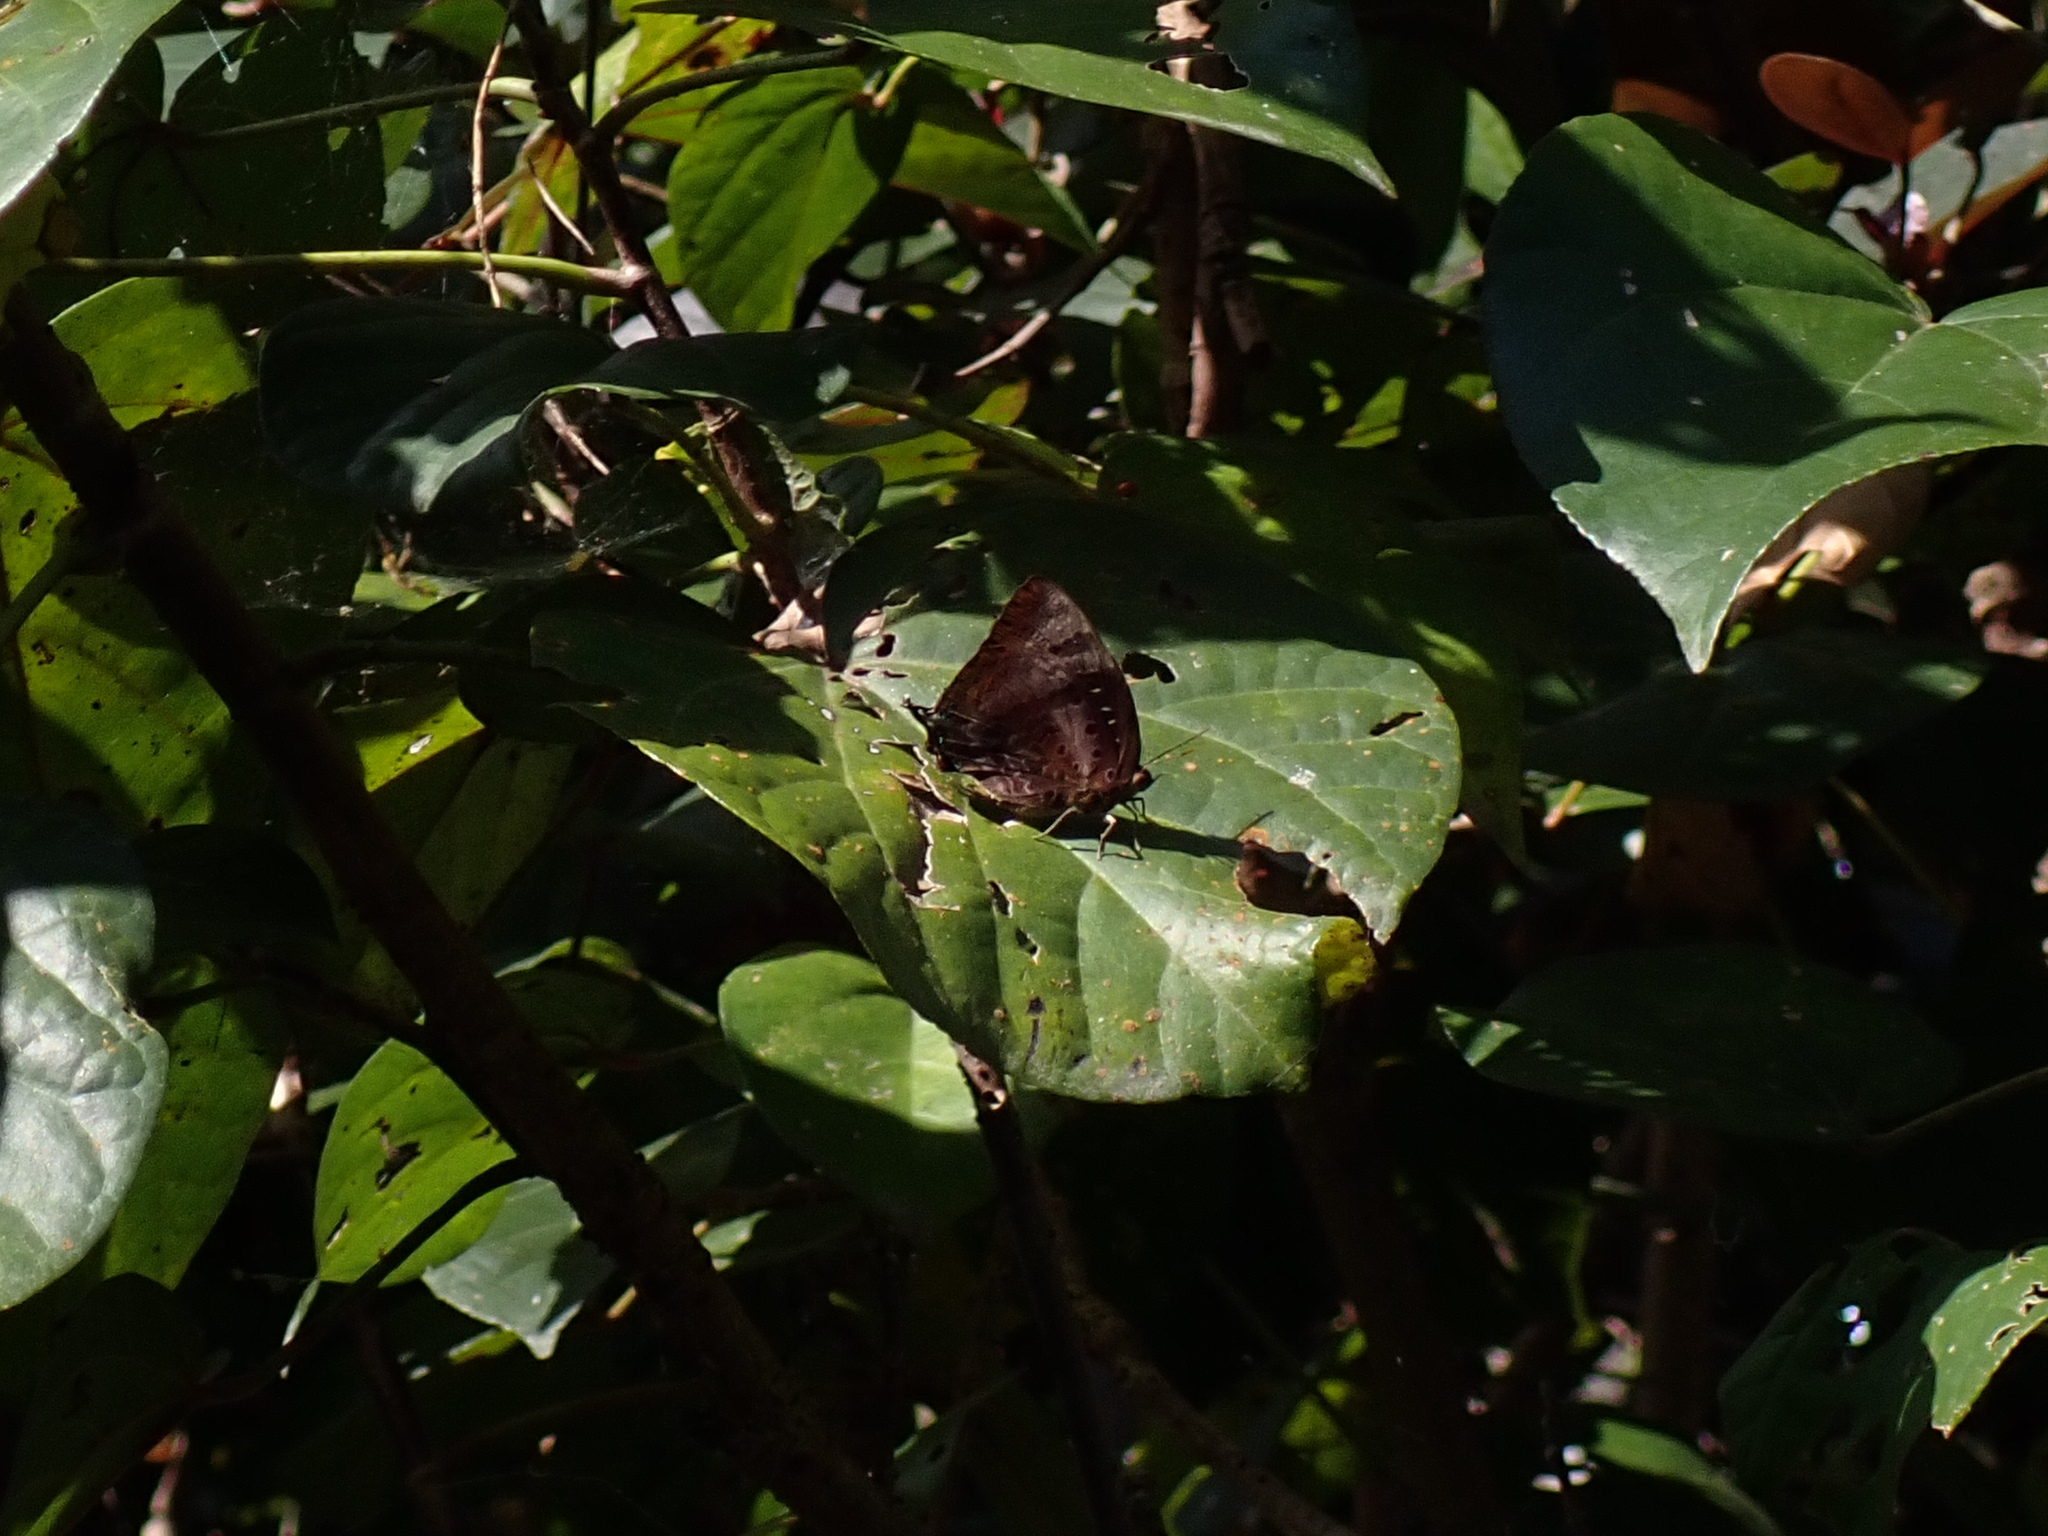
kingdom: Animalia
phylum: Arthropoda
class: Insecta
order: Lepidoptera
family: Lycaenidae
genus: Arhopala
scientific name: Arhopala micale
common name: Shining oak-blue
